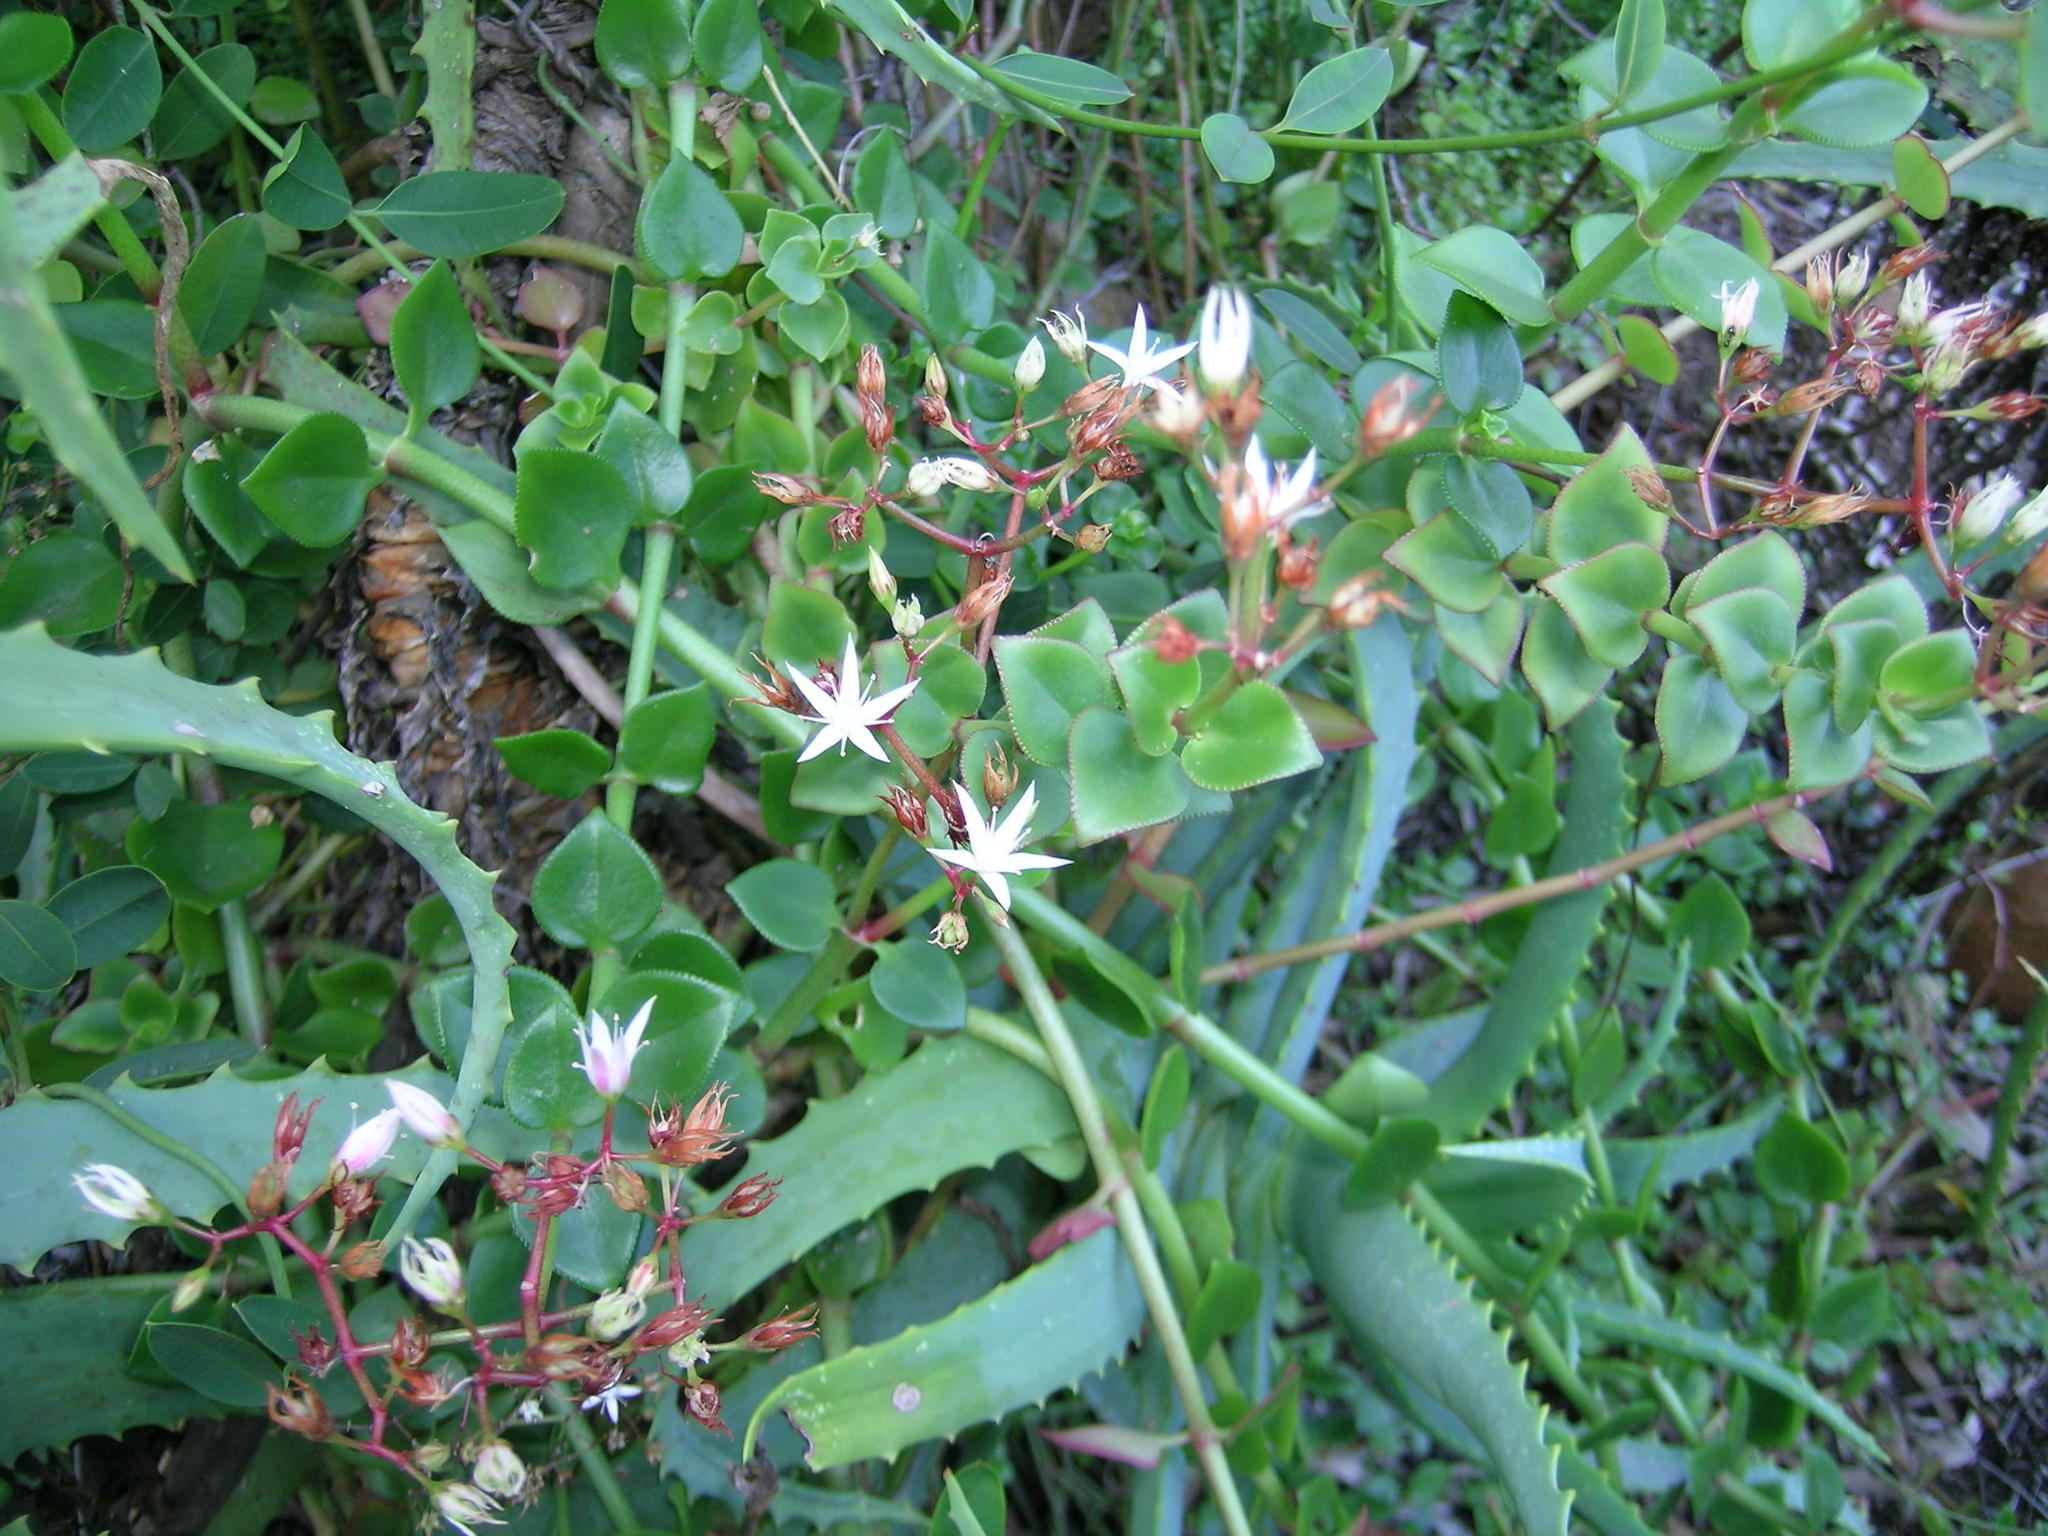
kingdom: Plantae
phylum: Tracheophyta
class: Magnoliopsida
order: Saxifragales
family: Crassulaceae
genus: Crassula
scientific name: Crassula sarmentosa
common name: Jade-tree
